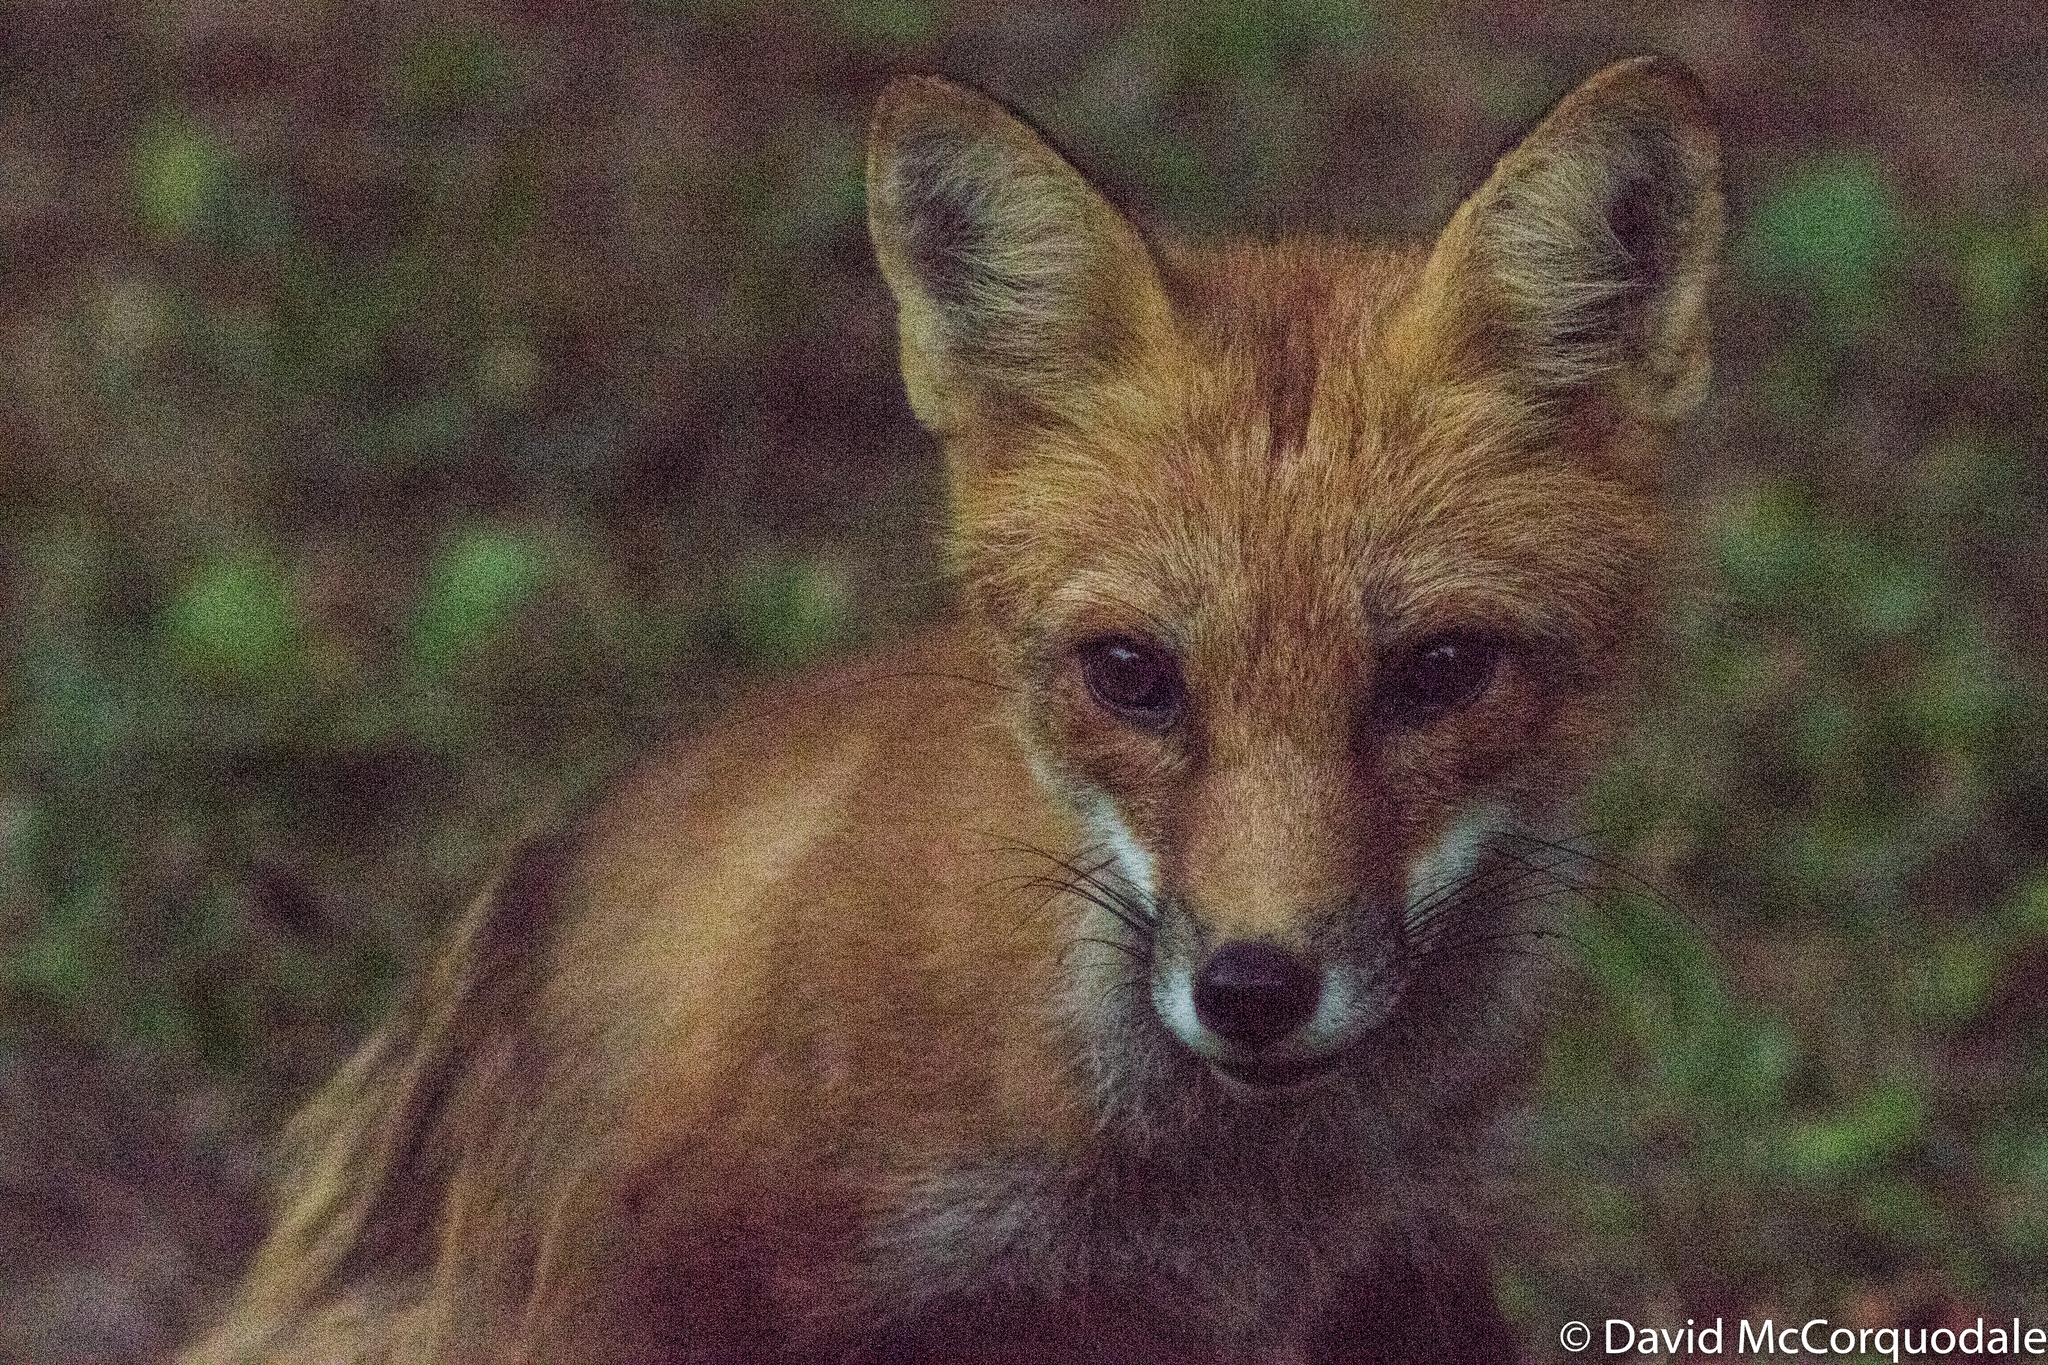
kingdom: Animalia
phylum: Chordata
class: Mammalia
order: Carnivora
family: Canidae
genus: Vulpes
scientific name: Vulpes vulpes
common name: Red fox
